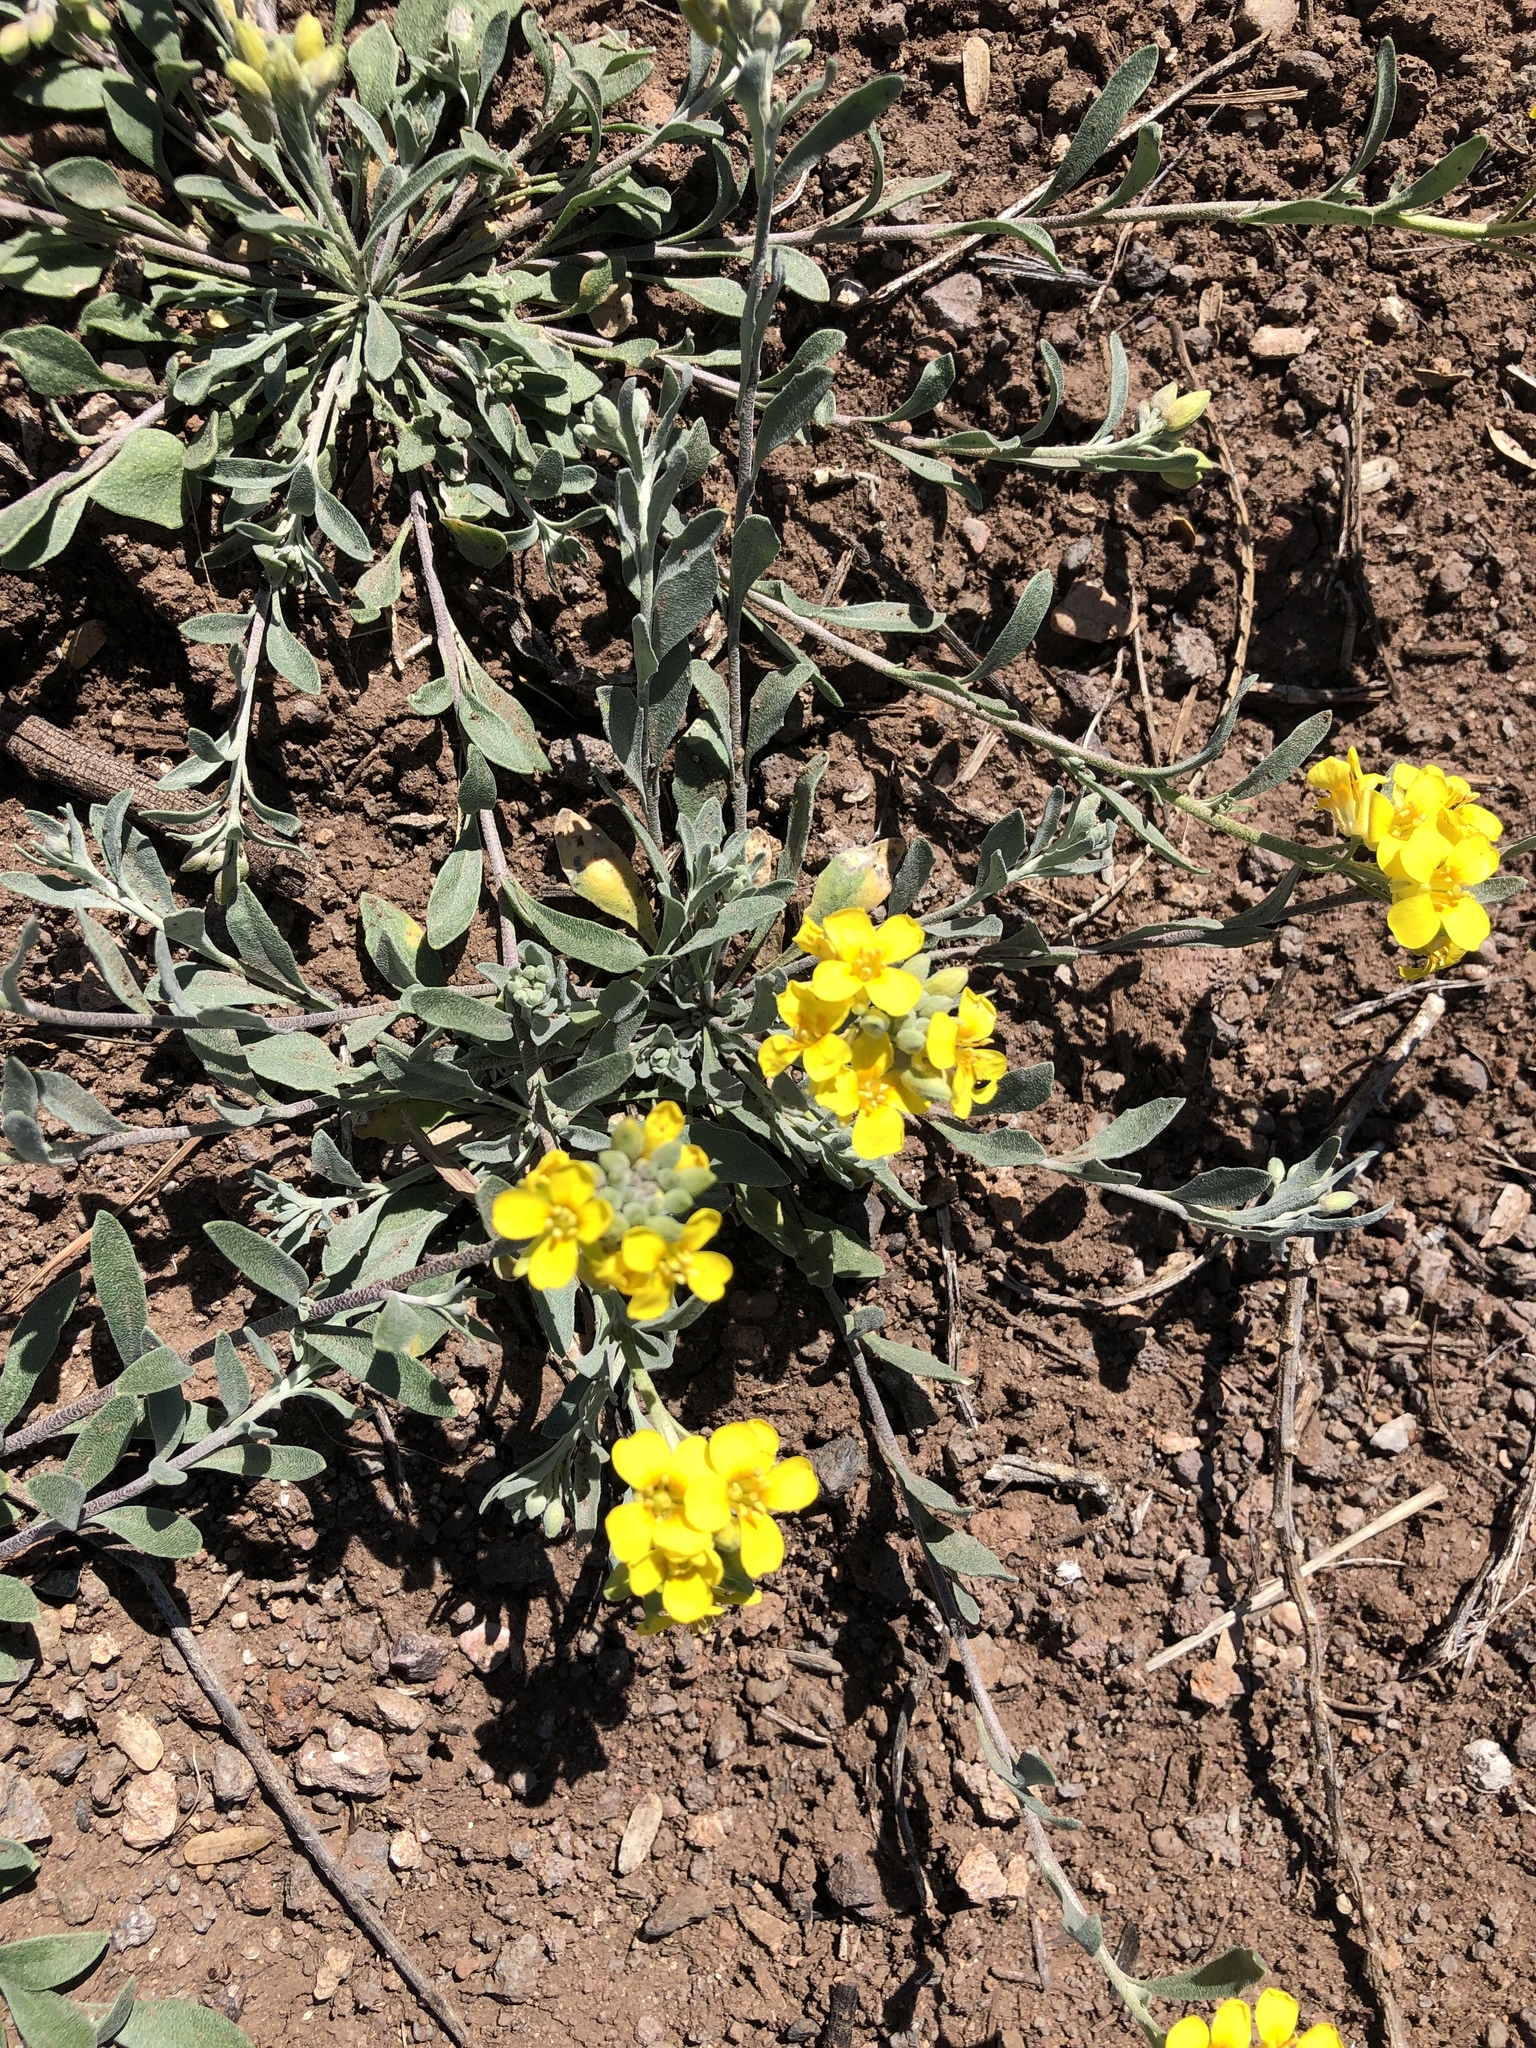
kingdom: Plantae
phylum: Tracheophyta
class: Magnoliopsida
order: Brassicales
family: Brassicaceae
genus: Physaria
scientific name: Physaria gordonii
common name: Gordon's bladderpod
